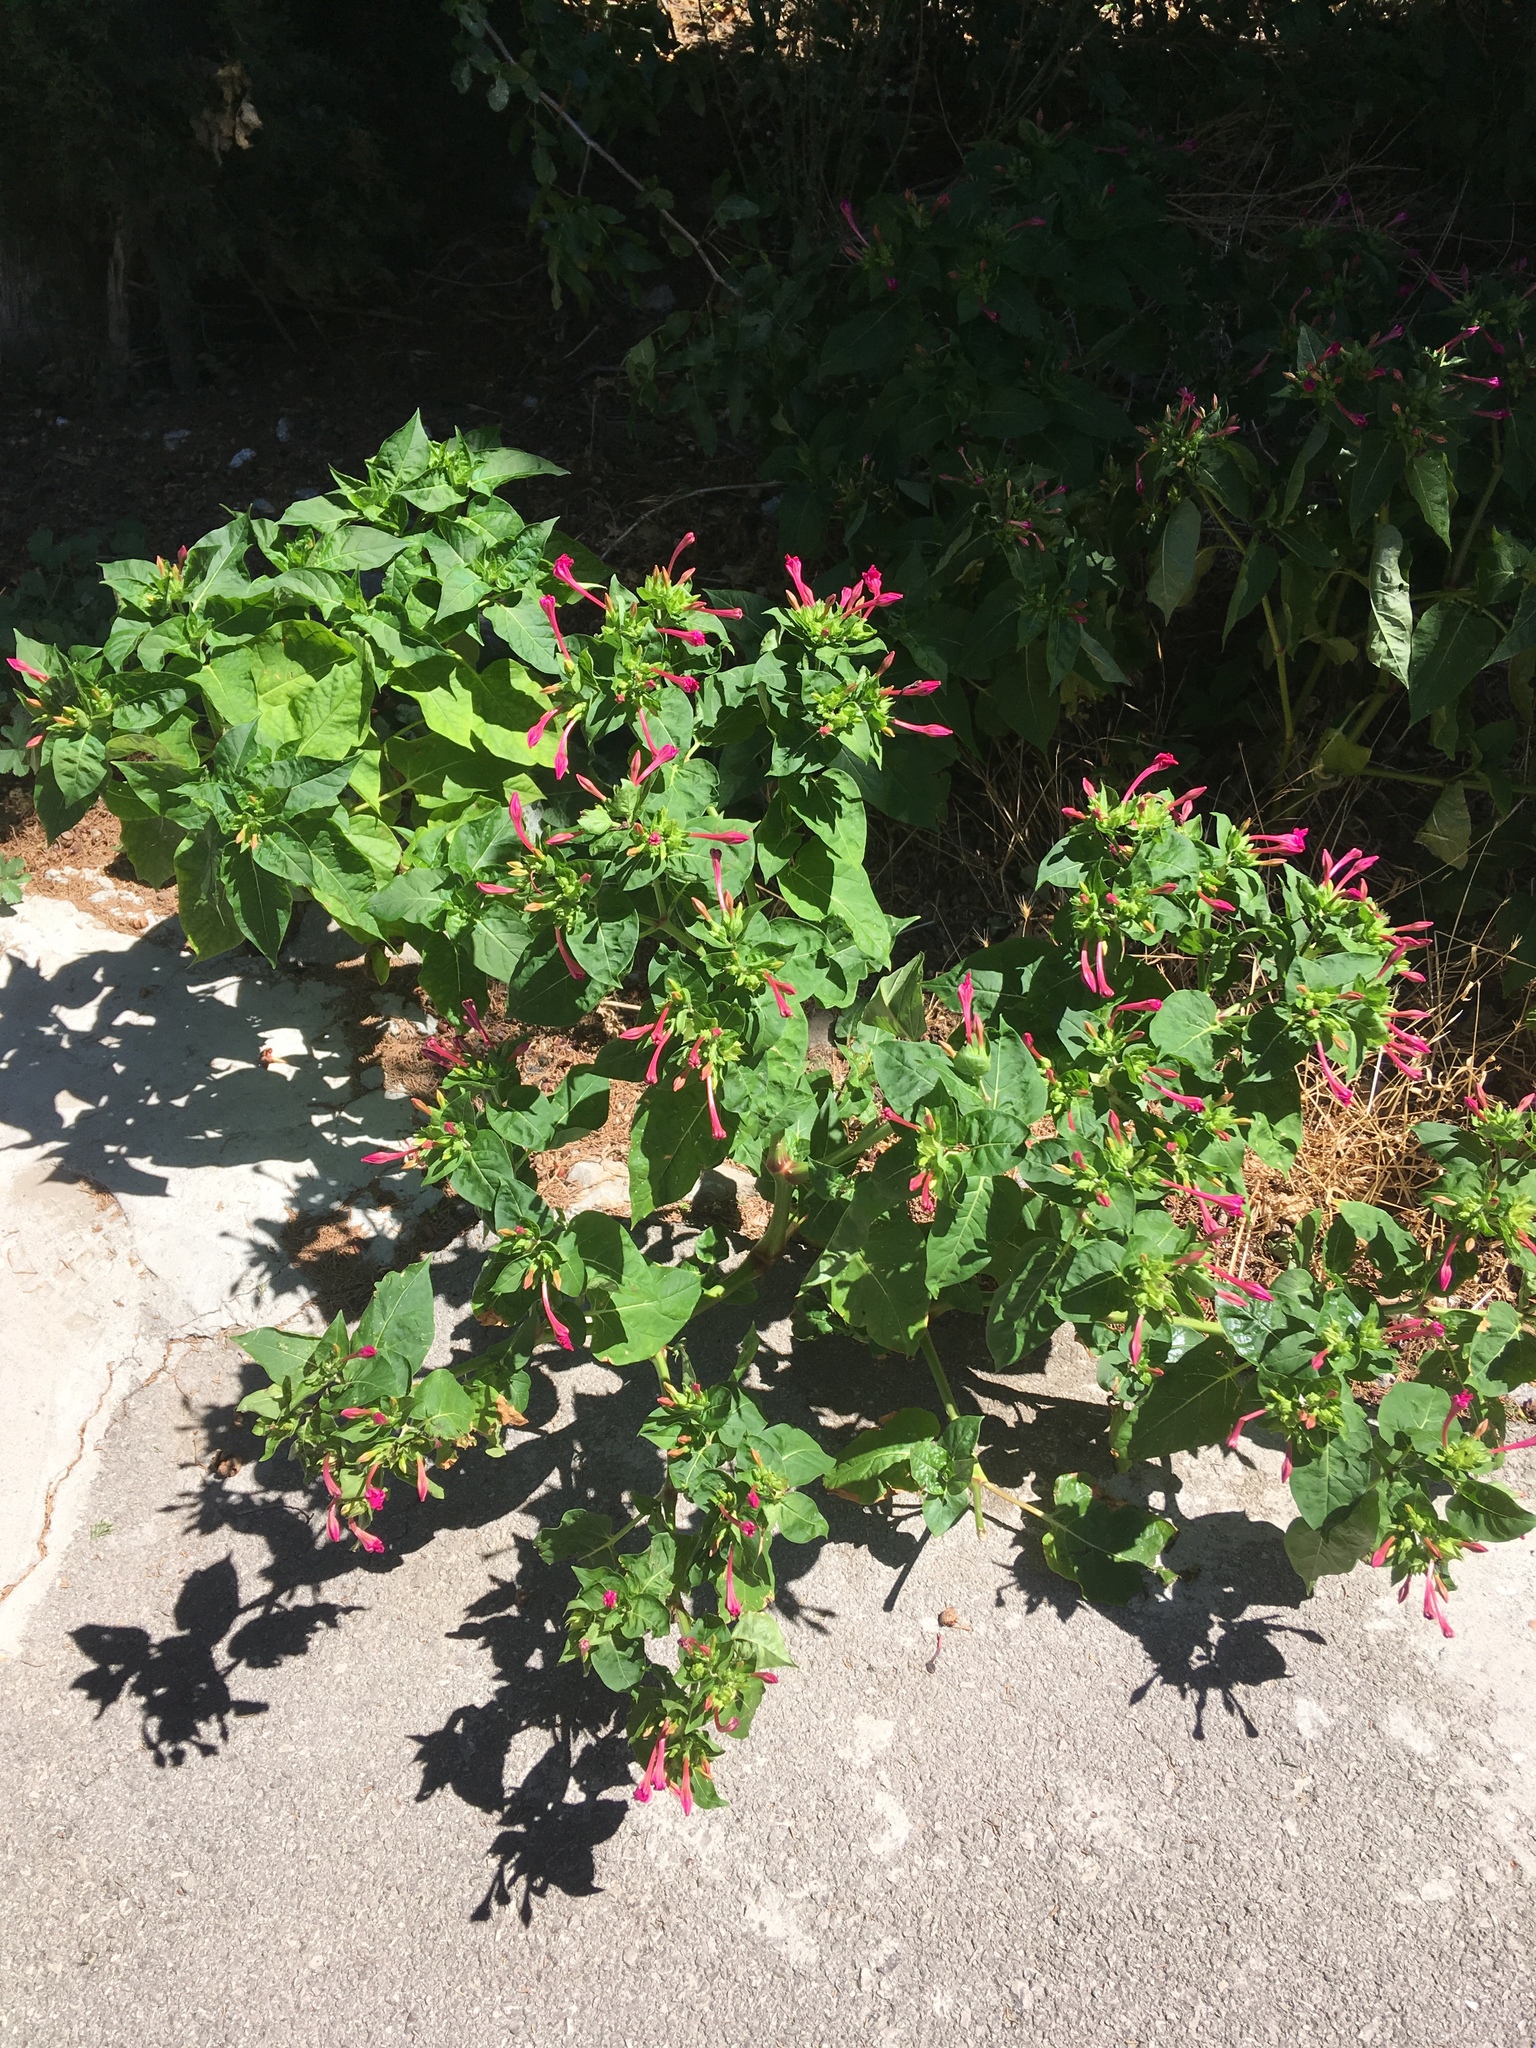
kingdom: Plantae
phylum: Tracheophyta
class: Magnoliopsida
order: Caryophyllales
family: Nyctaginaceae
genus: Mirabilis
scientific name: Mirabilis jalapa
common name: Marvel-of-peru
